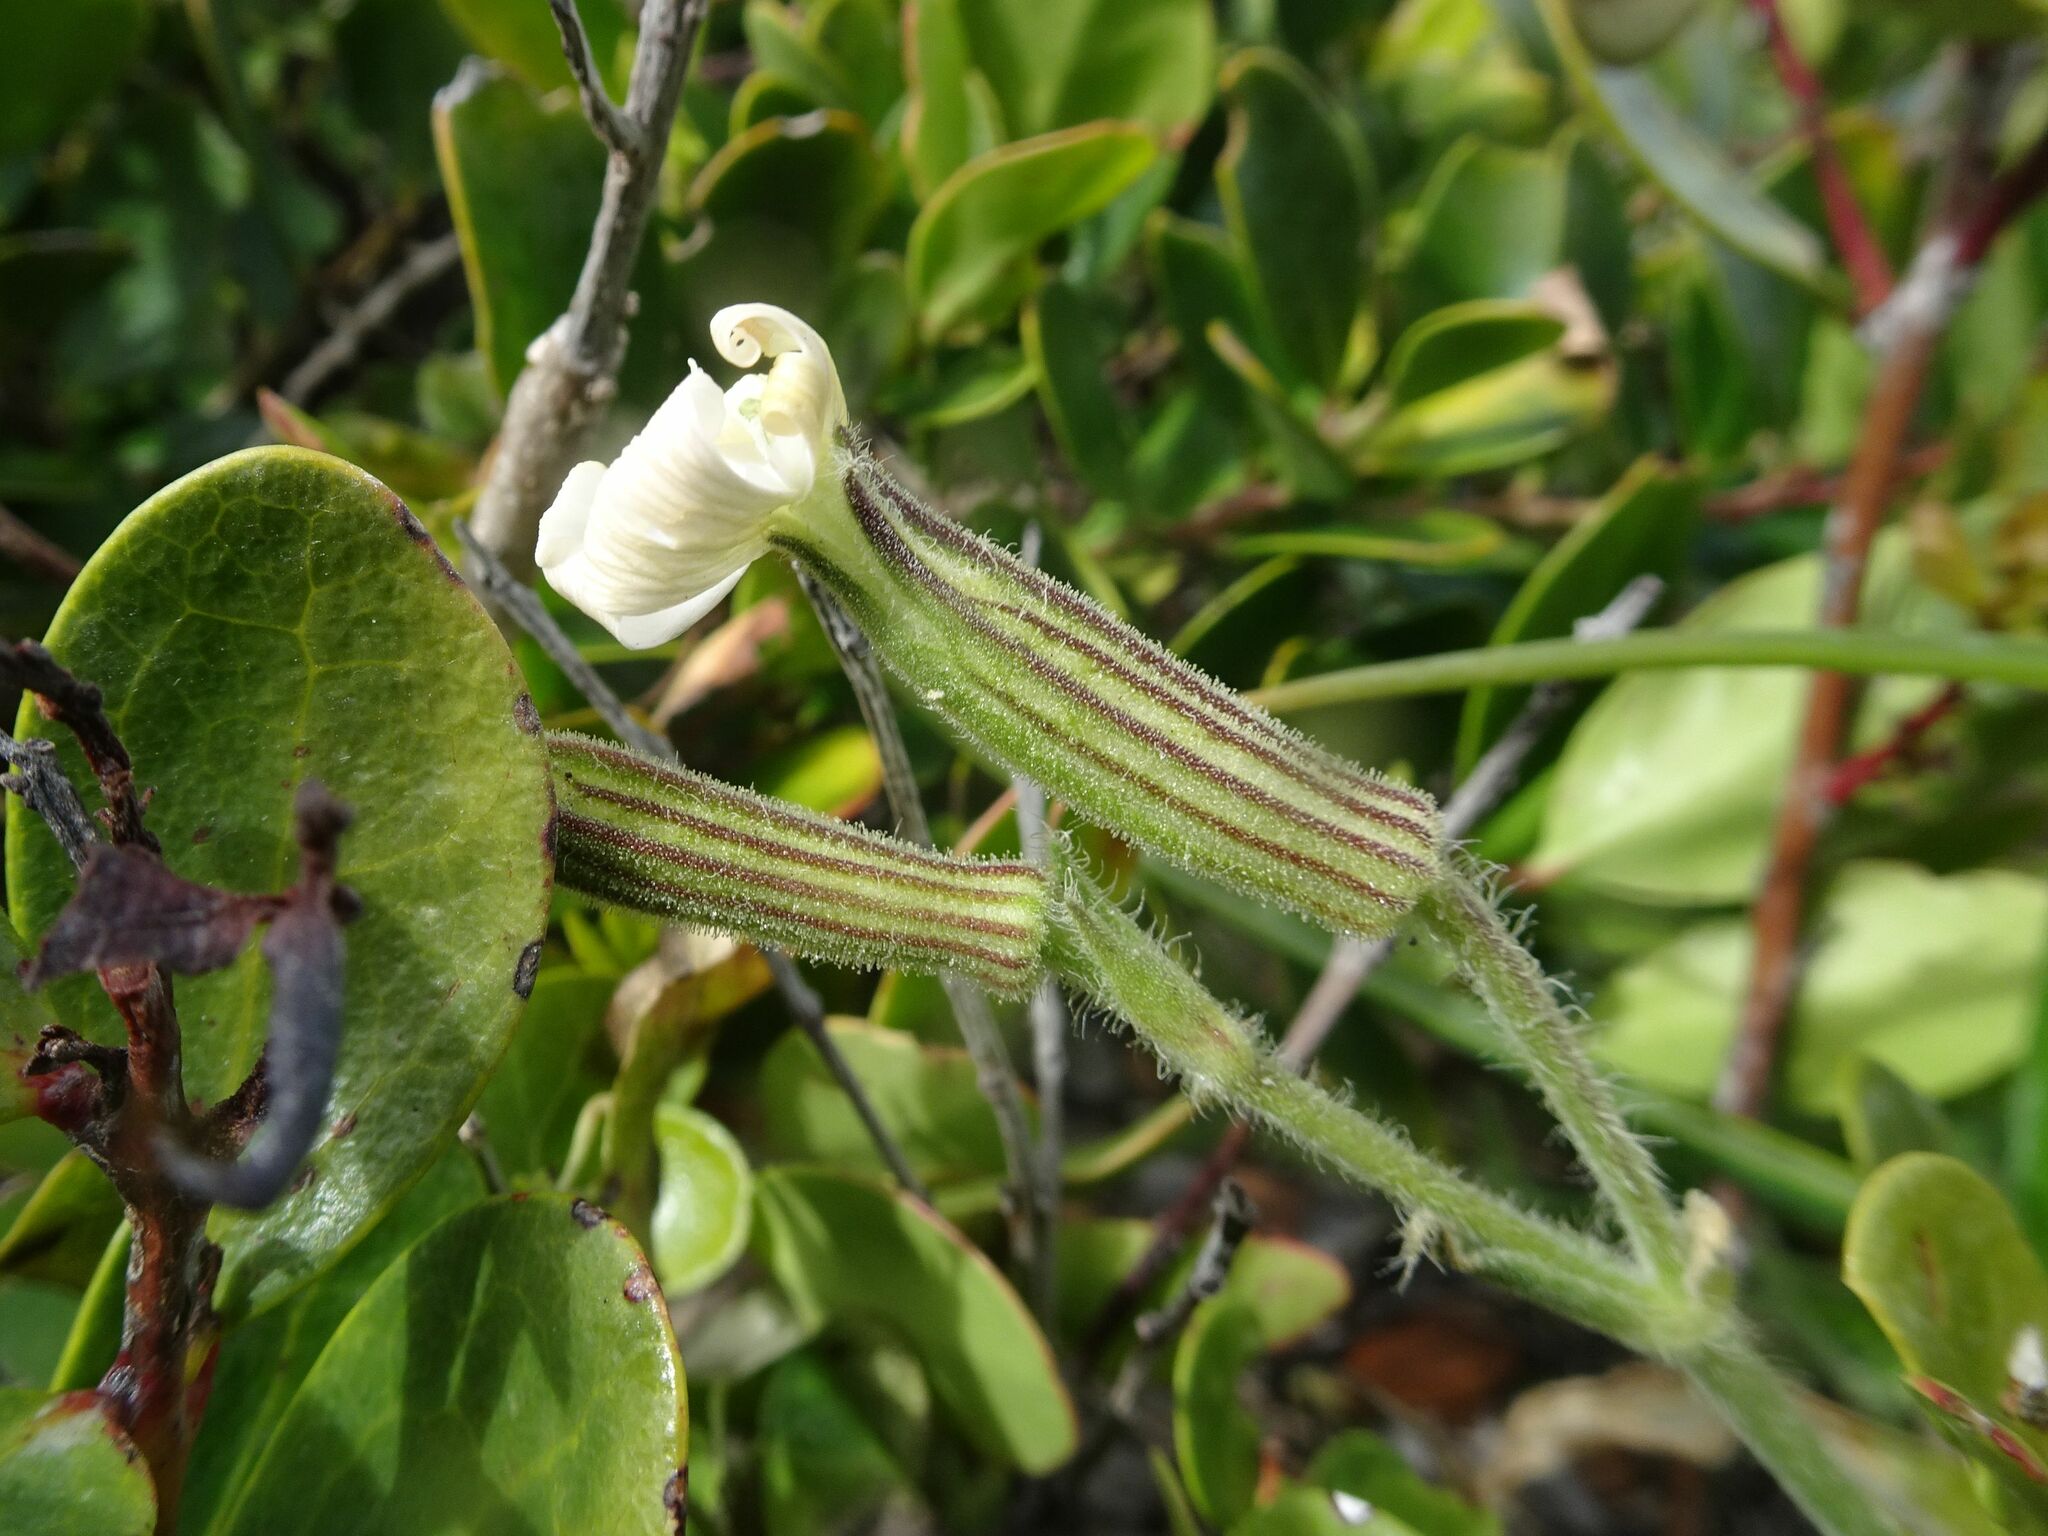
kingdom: Plantae
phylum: Tracheophyta
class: Magnoliopsida
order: Caryophyllales
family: Caryophyllaceae
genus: Silene
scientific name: Silene undulata
